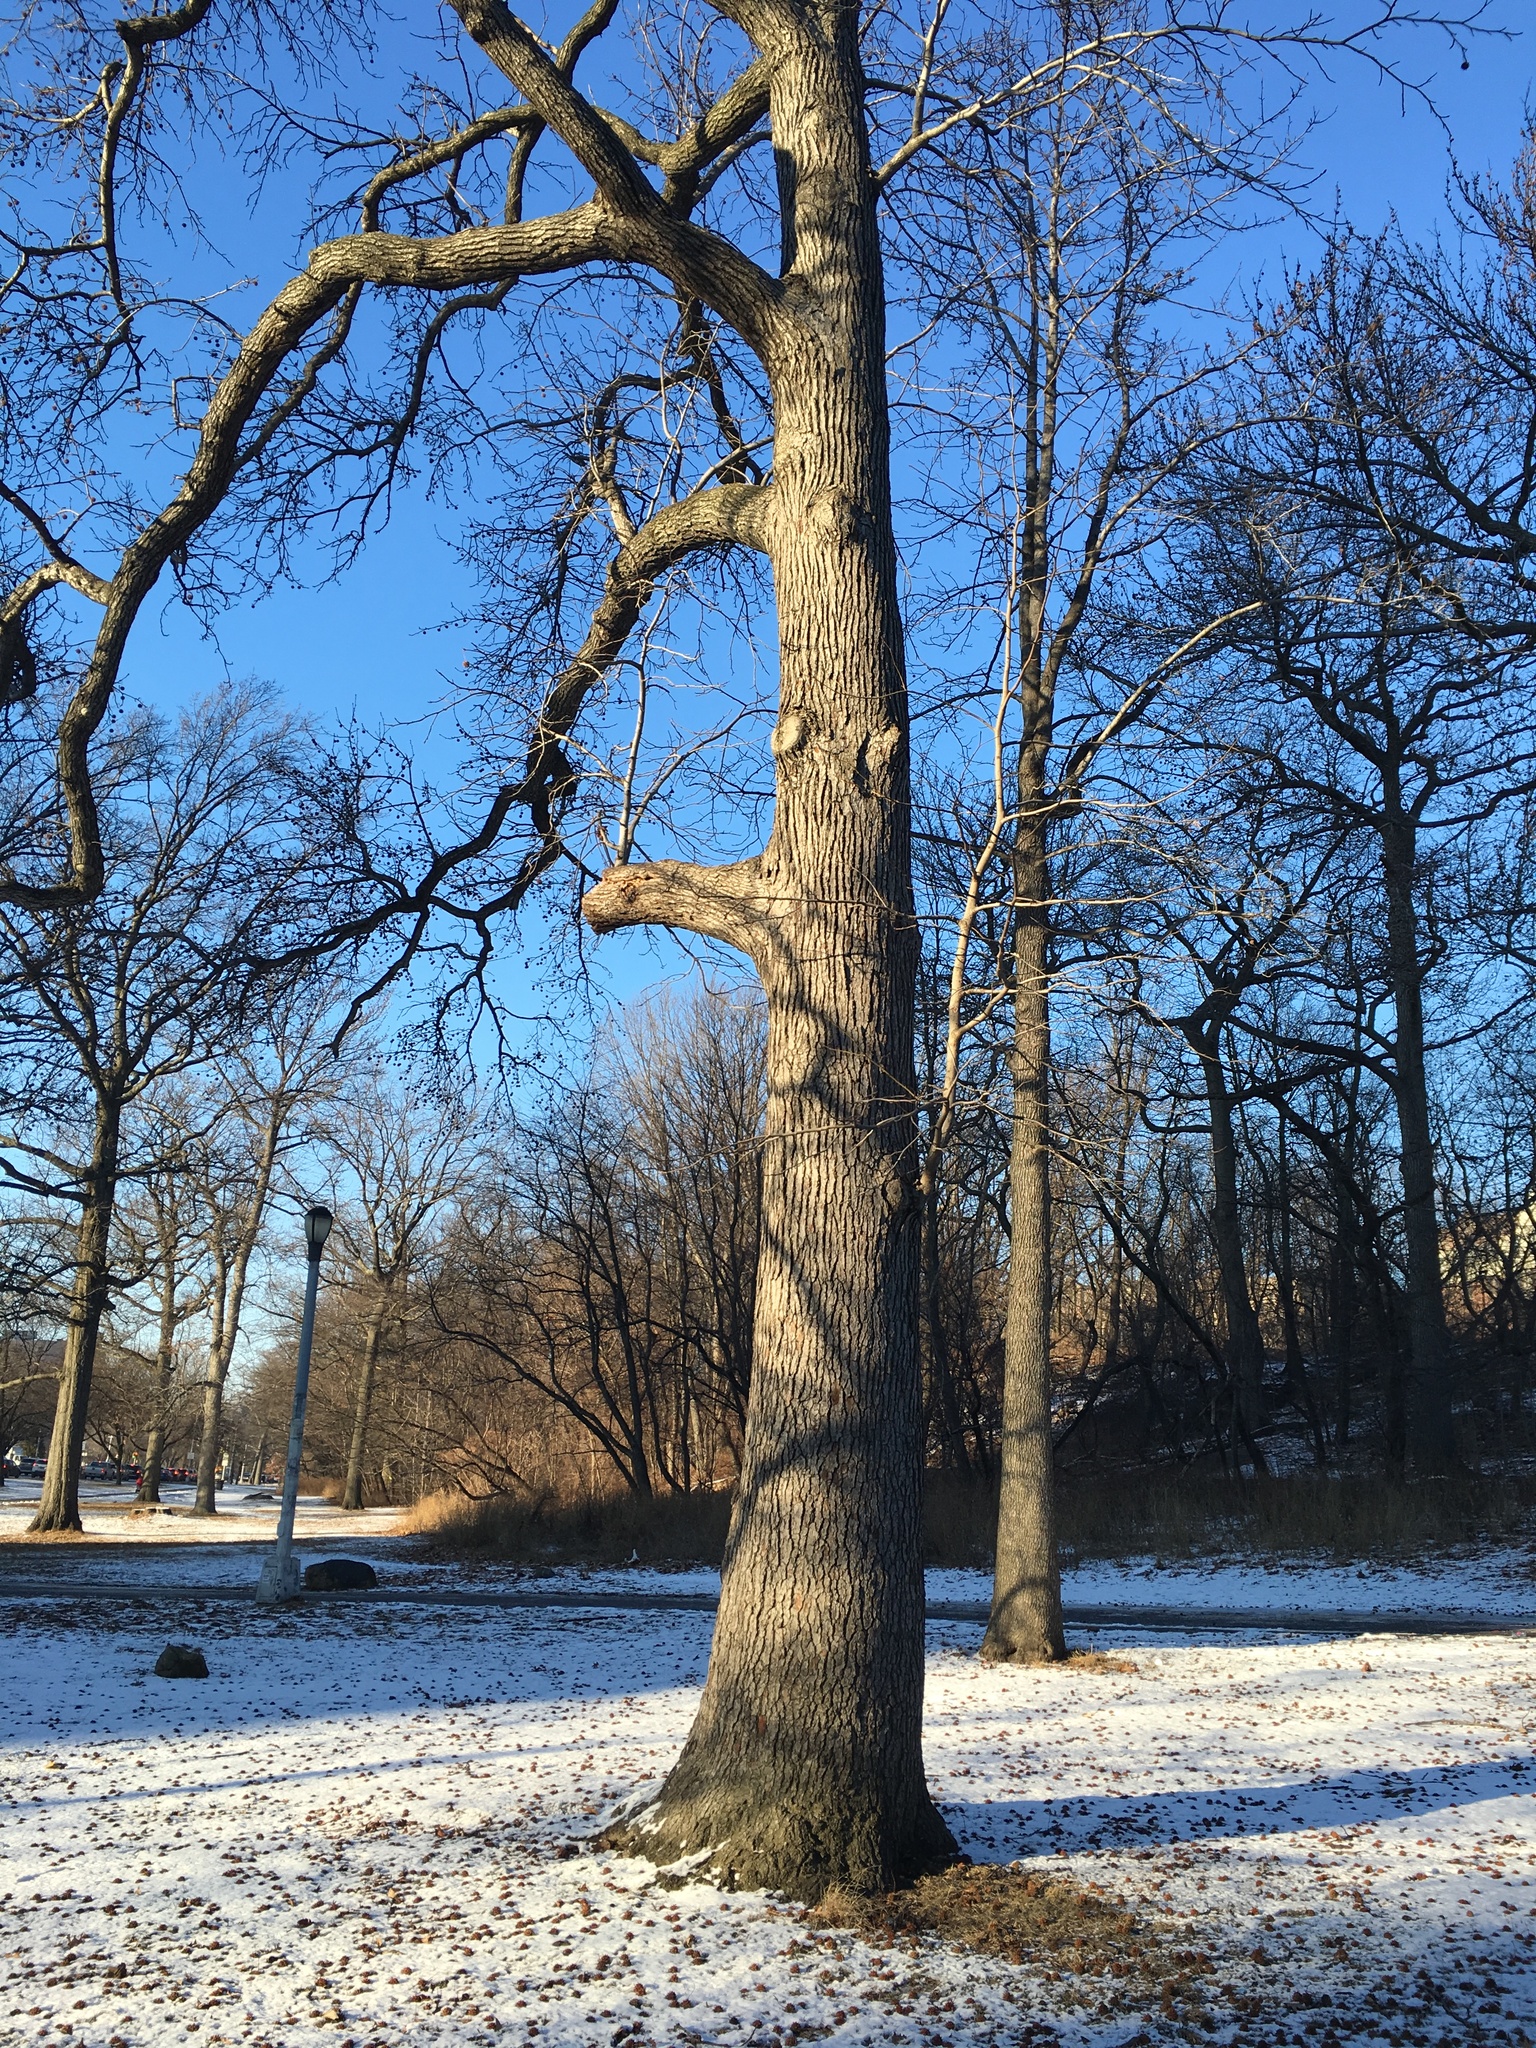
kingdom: Plantae
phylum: Tracheophyta
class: Magnoliopsida
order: Saxifragales
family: Altingiaceae
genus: Liquidambar
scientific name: Liquidambar styraciflua
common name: Sweet gum
